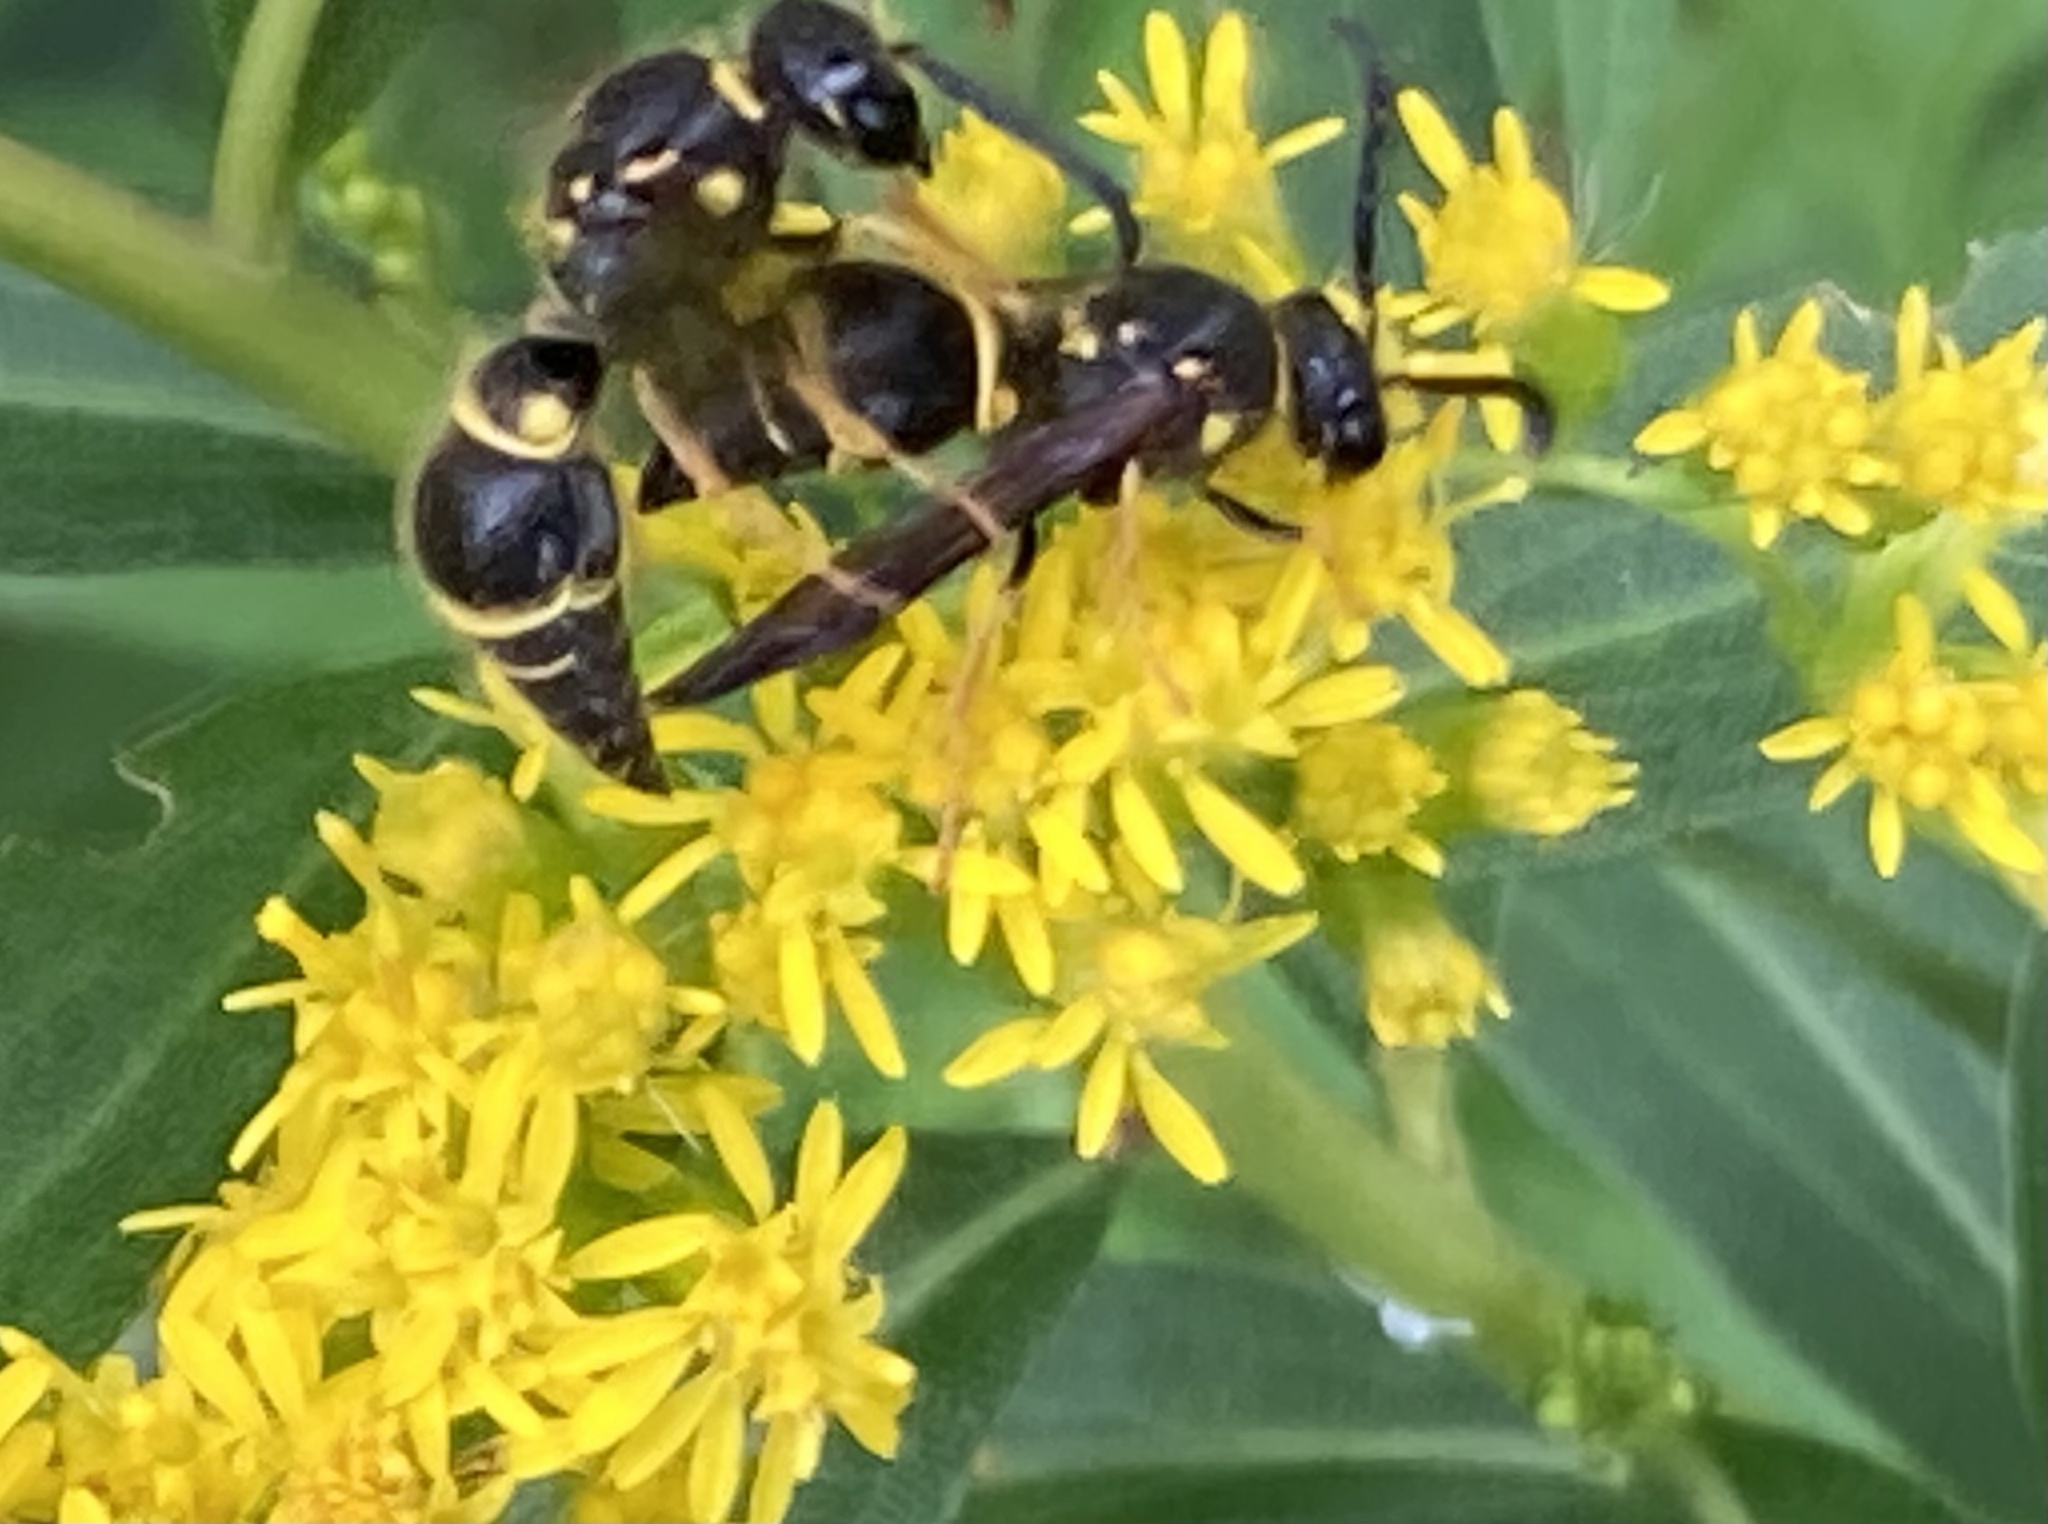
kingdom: Animalia
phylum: Arthropoda
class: Insecta
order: Hymenoptera
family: Vespidae
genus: Ancistrocerus
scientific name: Ancistrocerus campestris
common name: Smiling mason wasp
